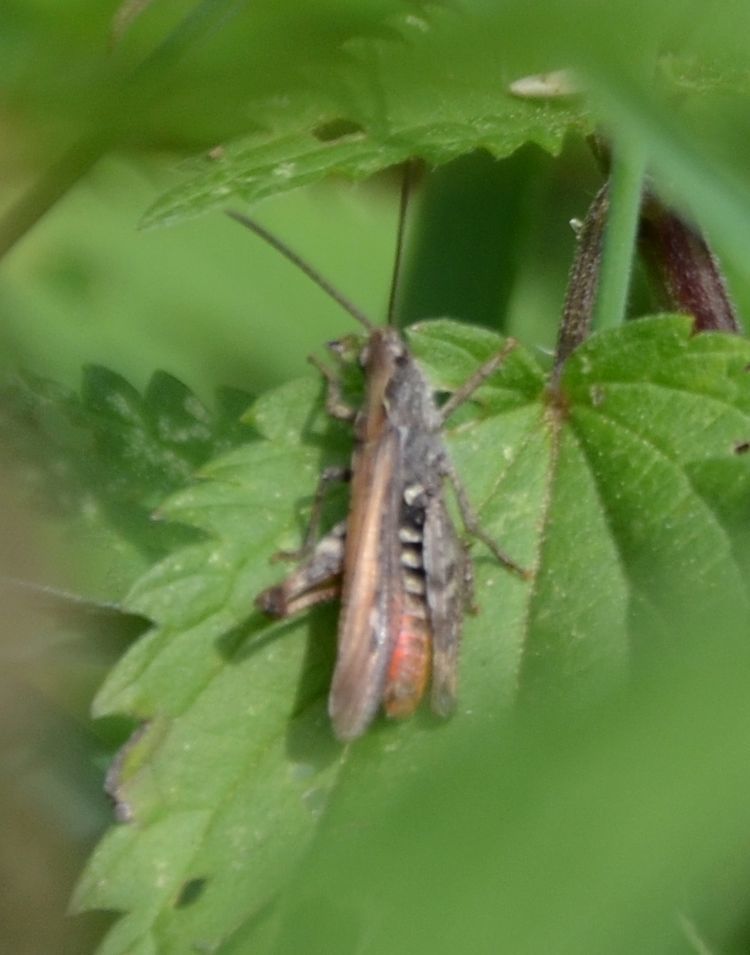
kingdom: Animalia
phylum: Arthropoda
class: Insecta
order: Orthoptera
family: Acrididae
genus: Chorthippus
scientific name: Chorthippus brunneus
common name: Field grasshopper
